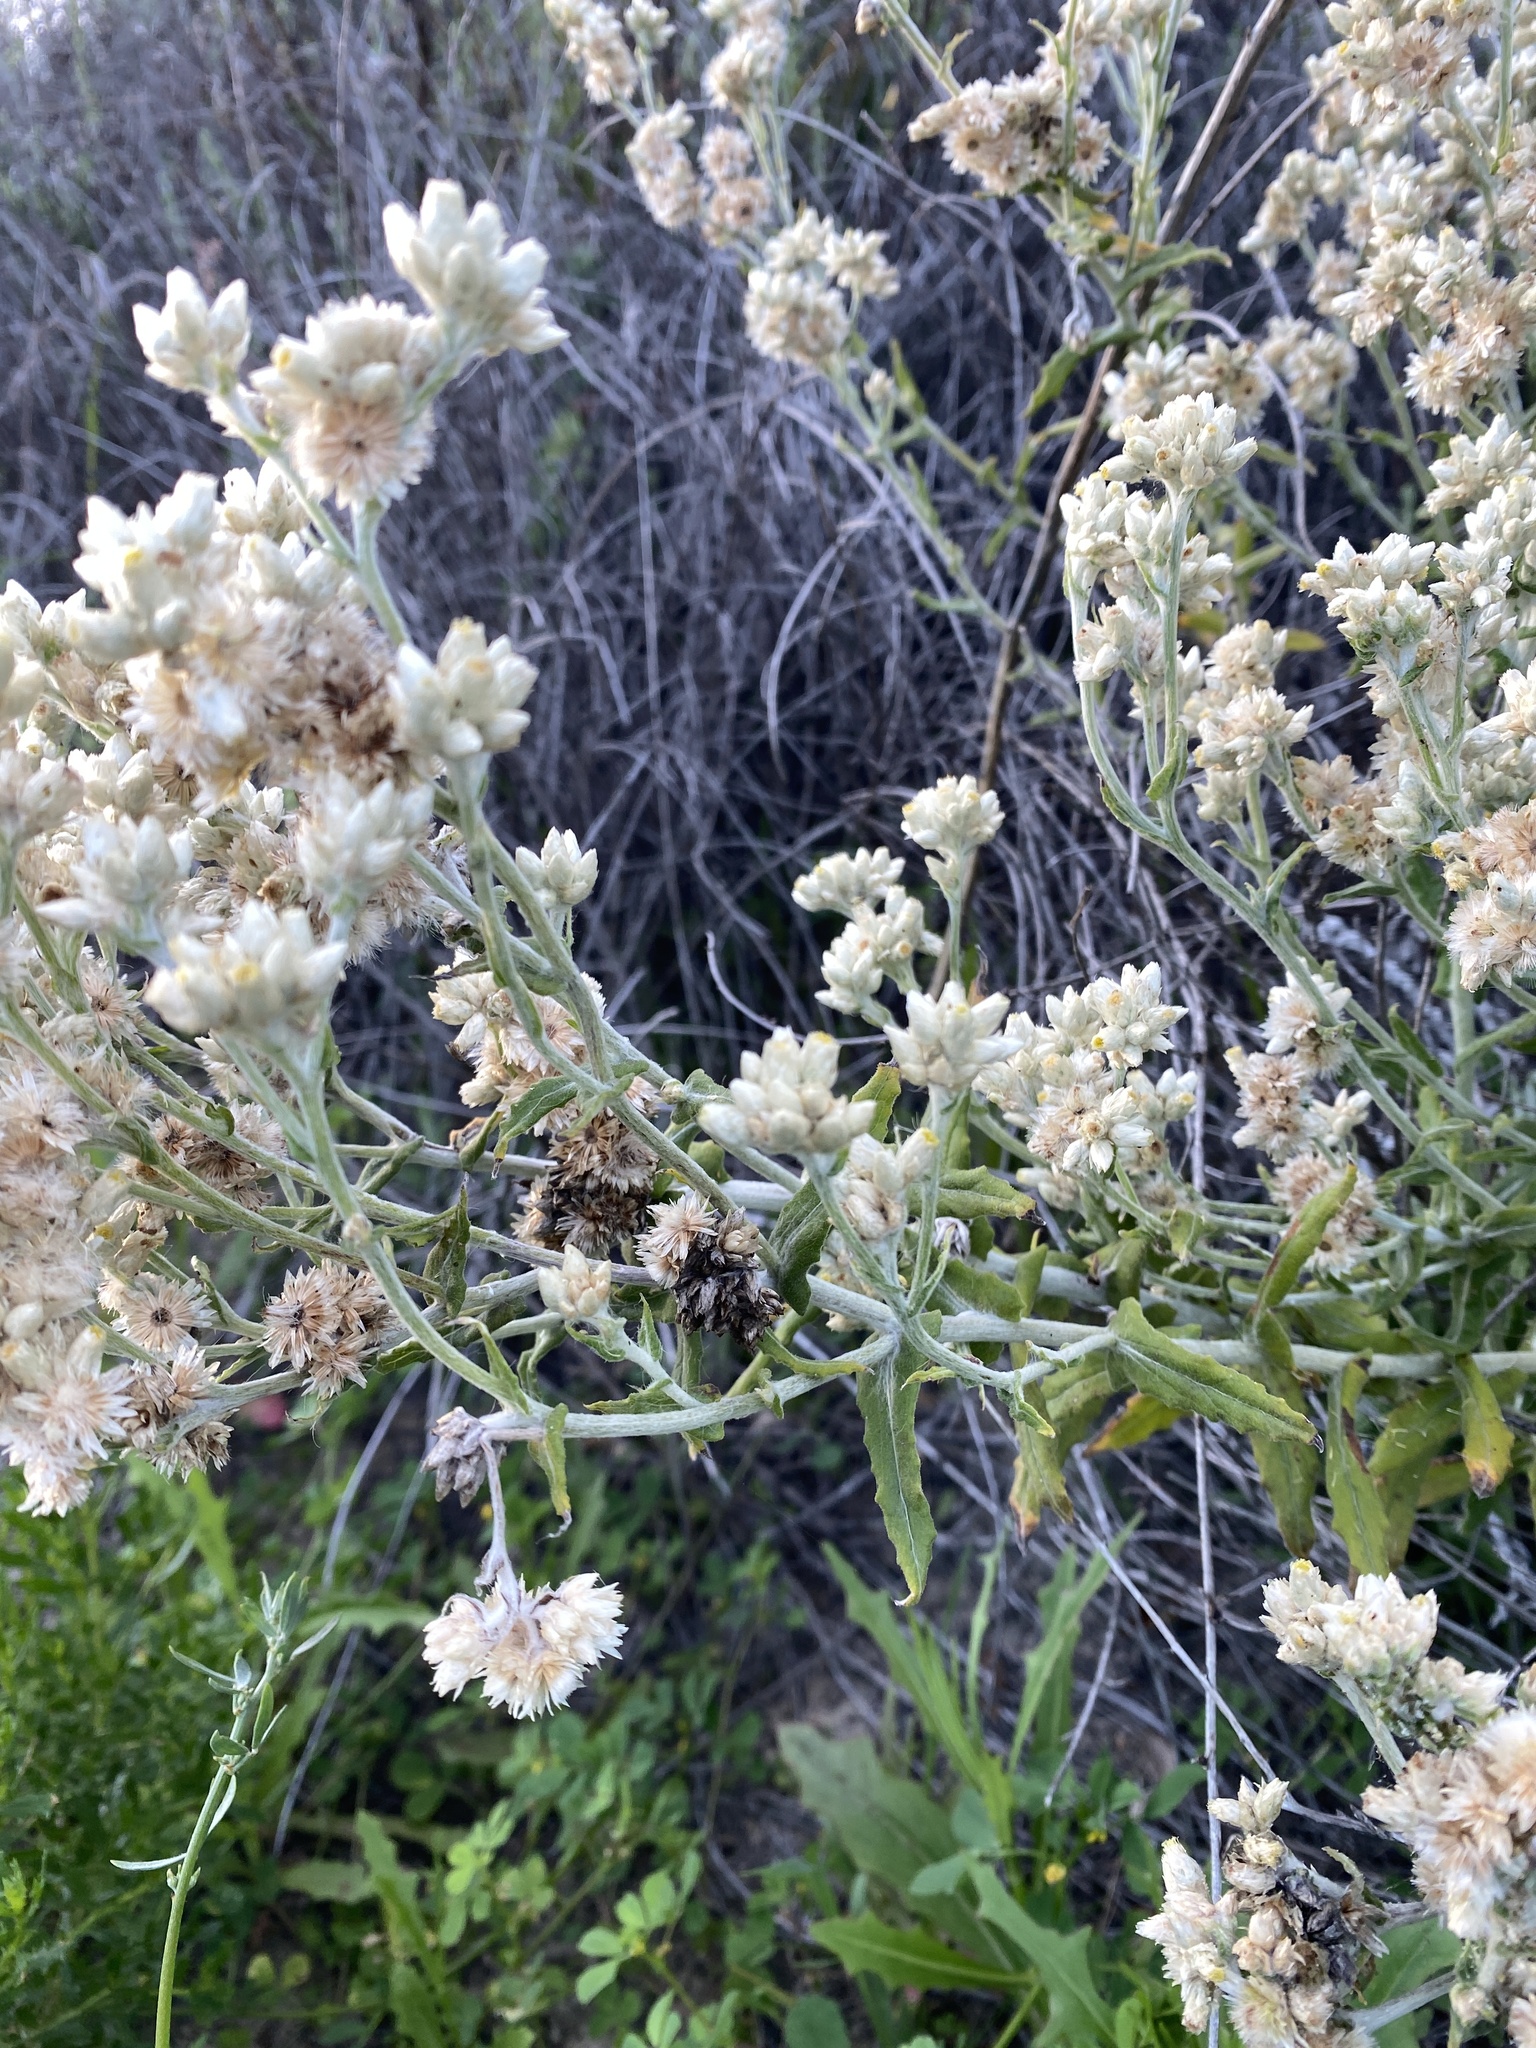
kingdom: Plantae
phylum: Tracheophyta
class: Magnoliopsida
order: Asterales
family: Asteraceae
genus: Pseudognaphalium
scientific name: Pseudognaphalium biolettii
